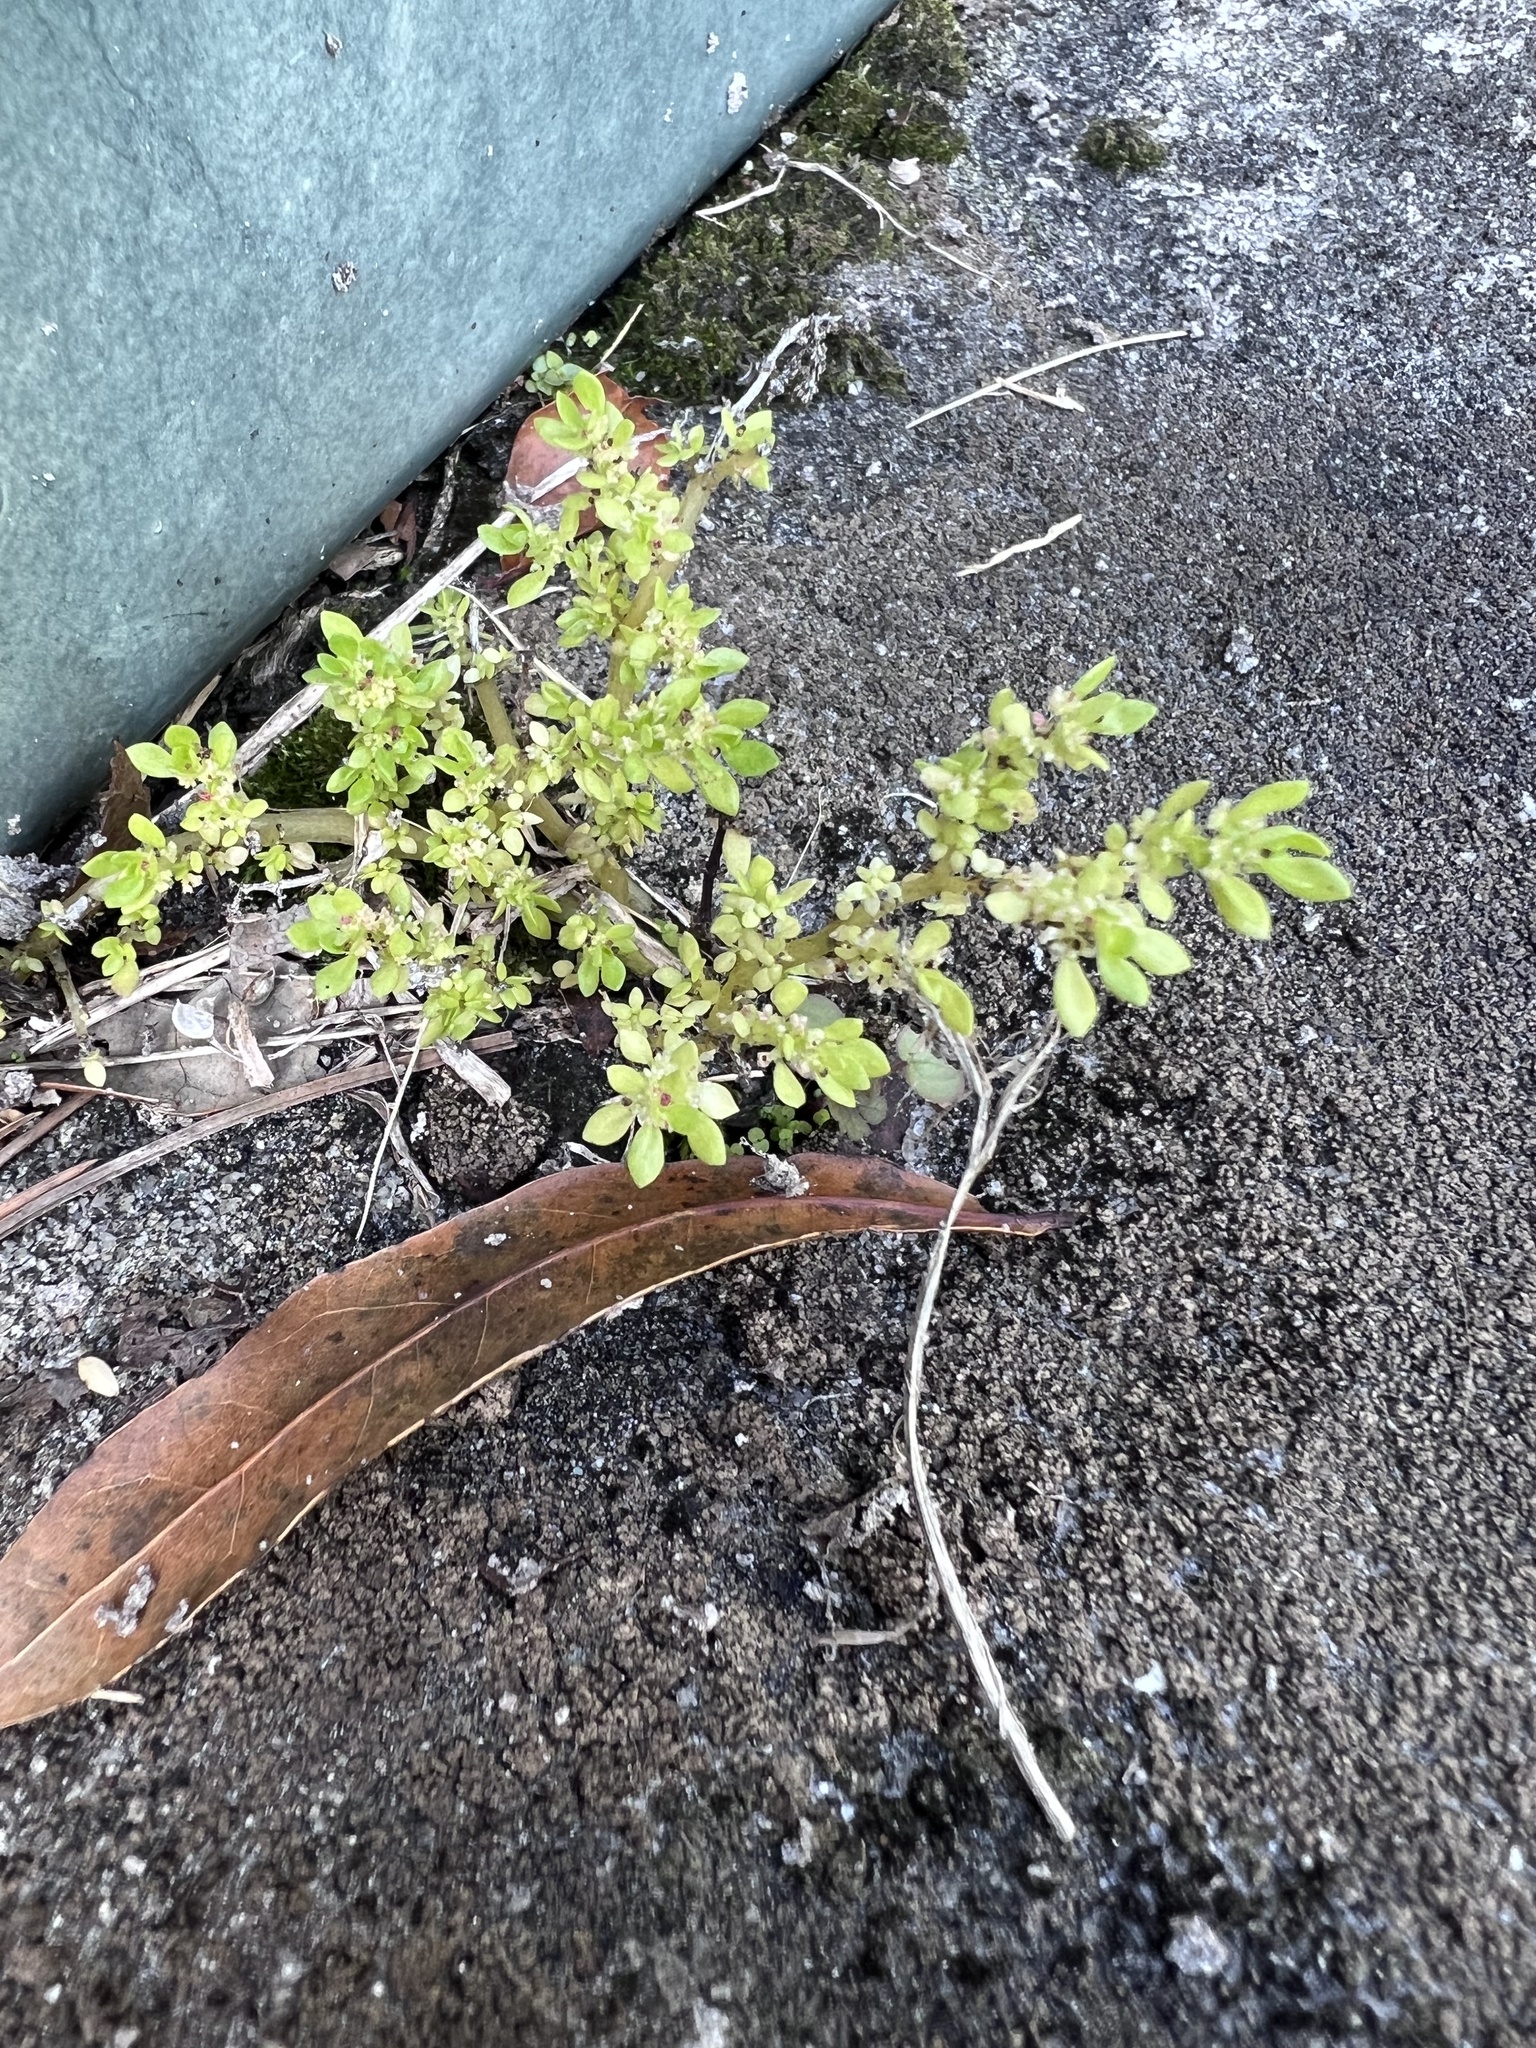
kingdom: Plantae
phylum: Tracheophyta
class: Magnoliopsida
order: Rosales
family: Urticaceae
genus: Pilea
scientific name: Pilea microphylla
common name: Artillery-plant
